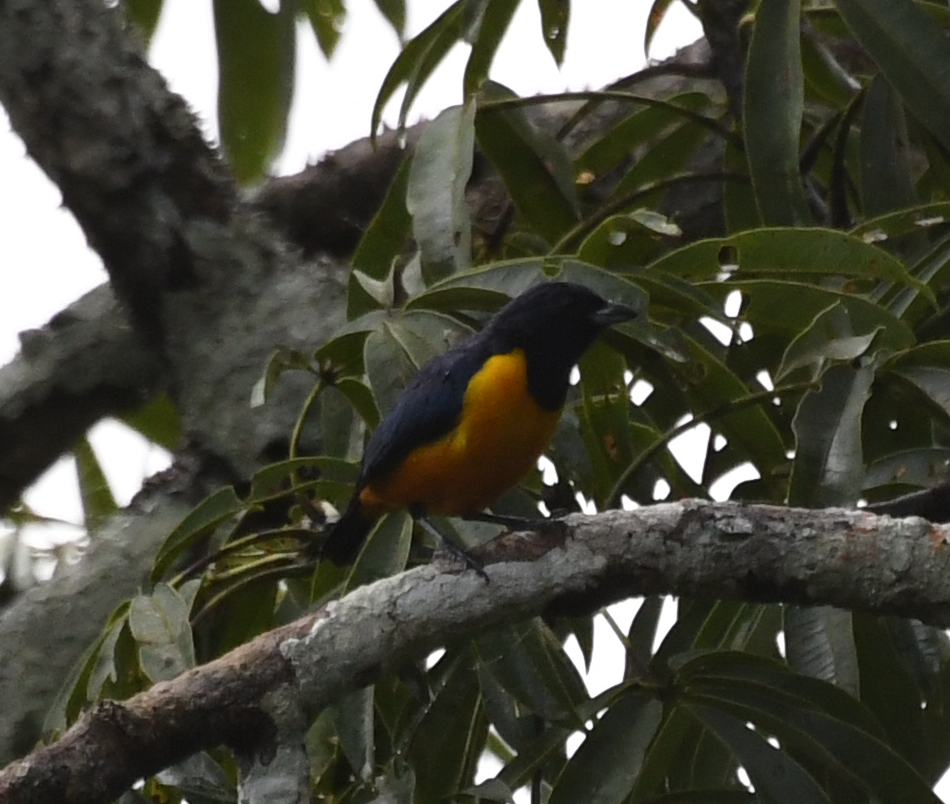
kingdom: Animalia
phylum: Chordata
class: Aves
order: Passeriformes
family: Fringillidae
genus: Euphonia
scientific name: Euphonia rufiventris
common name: Rufous-bellied euphonia
